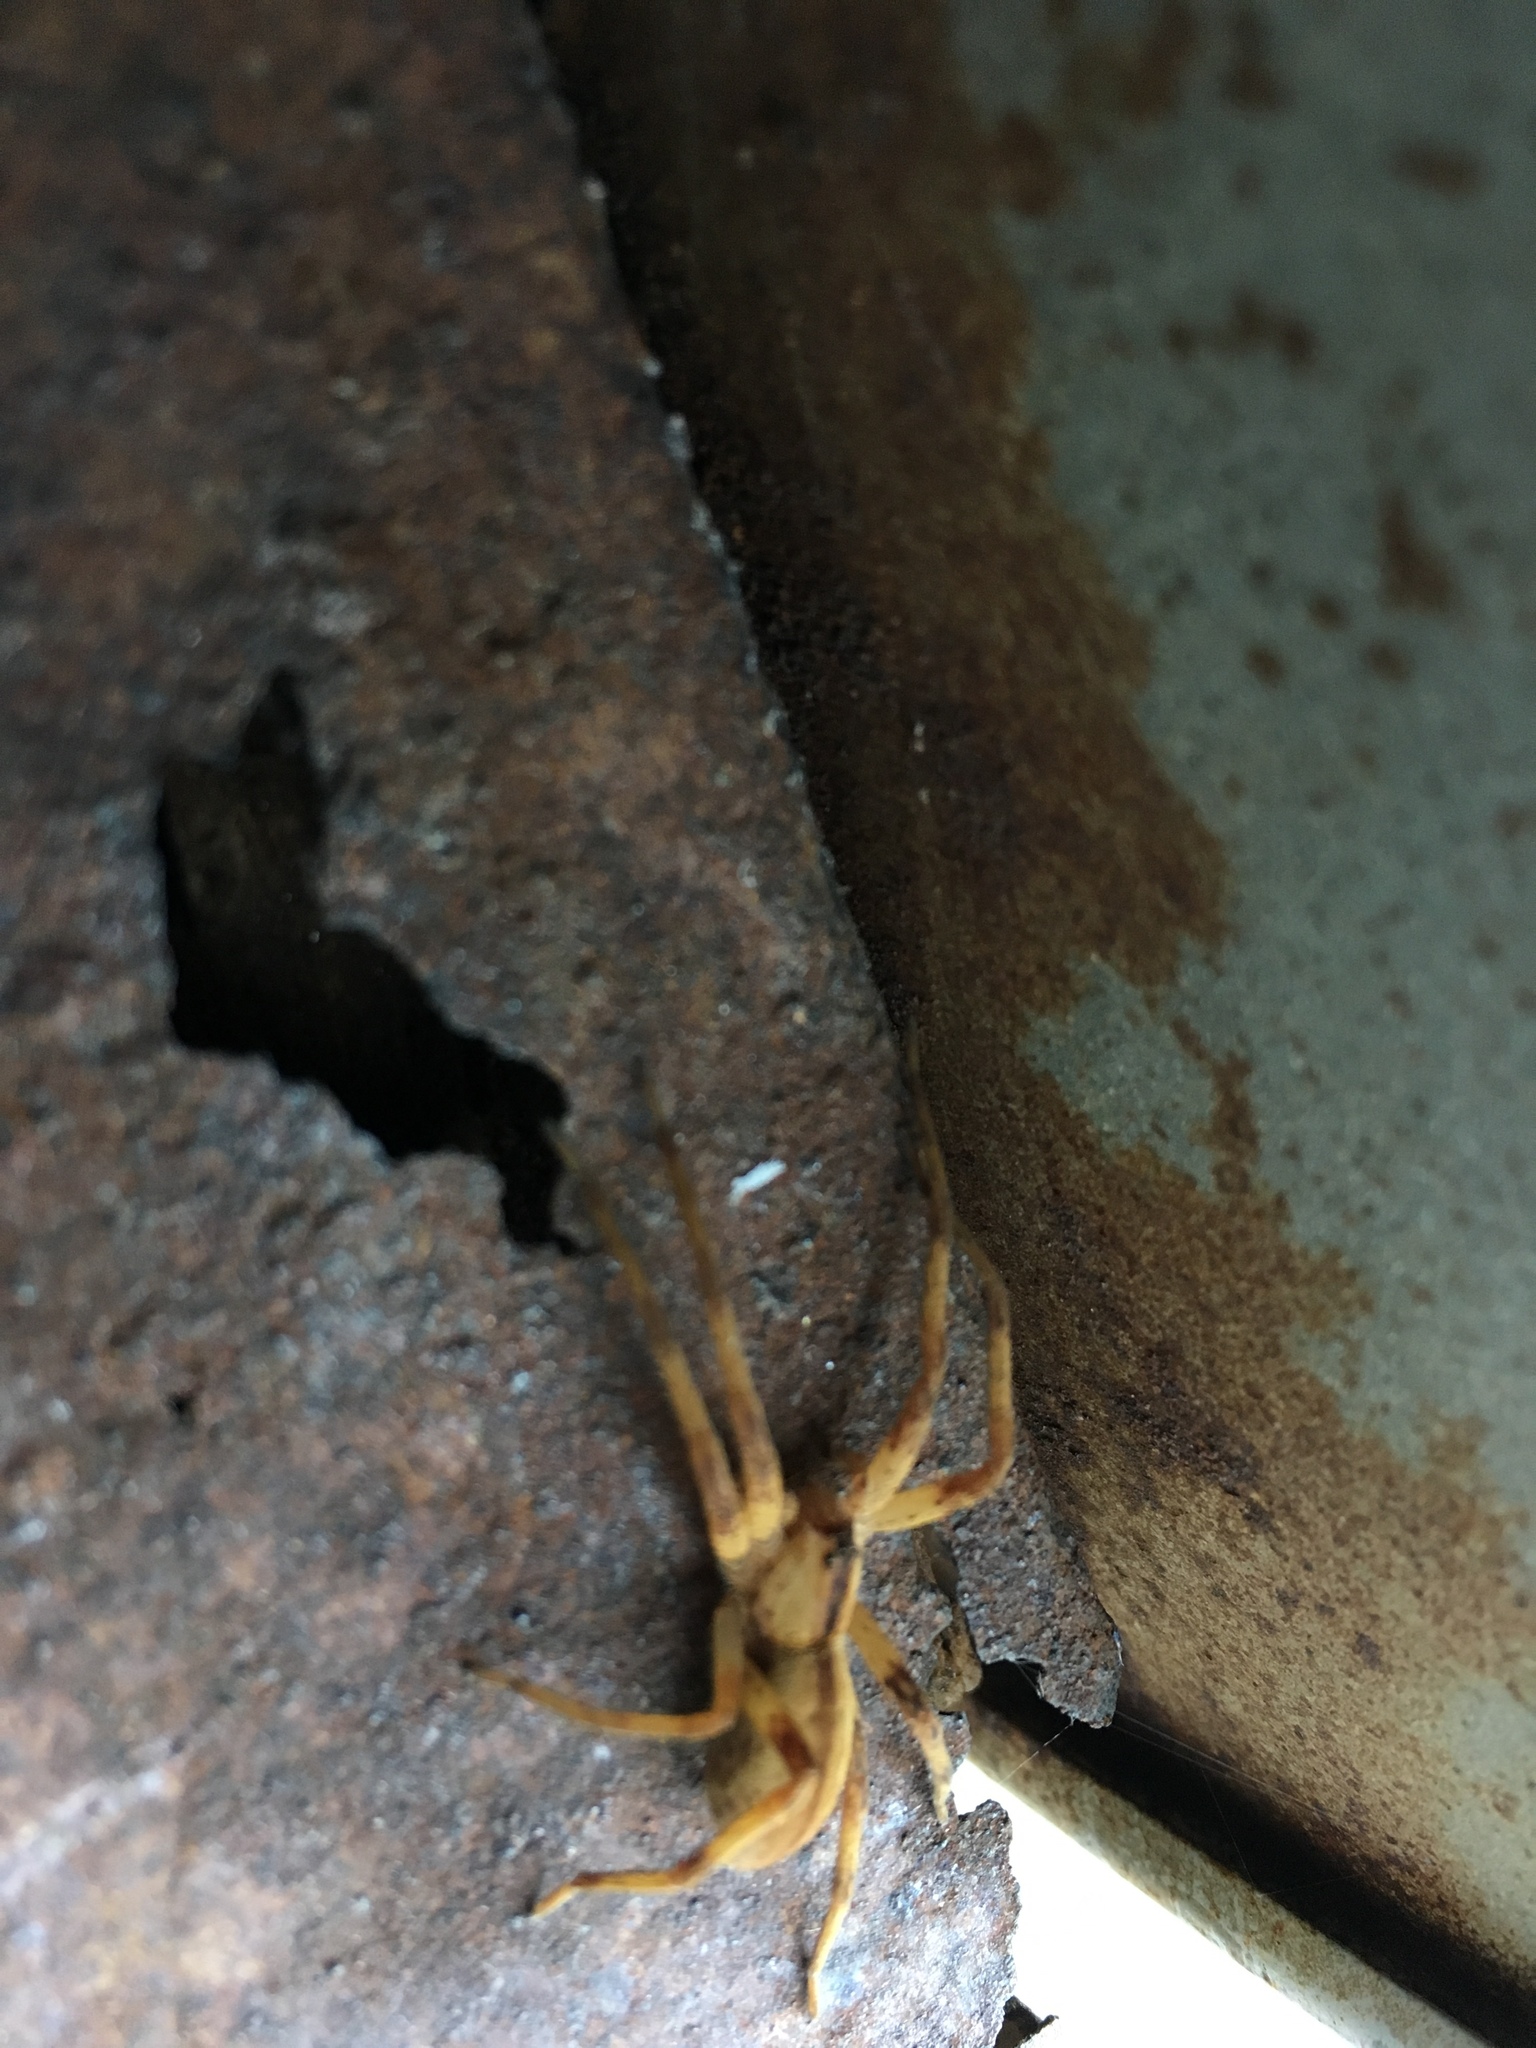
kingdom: Animalia
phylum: Arthropoda
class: Arachnida
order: Araneae
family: Pisauridae
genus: Pisaurina
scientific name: Pisaurina mira
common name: American nursery web spider
